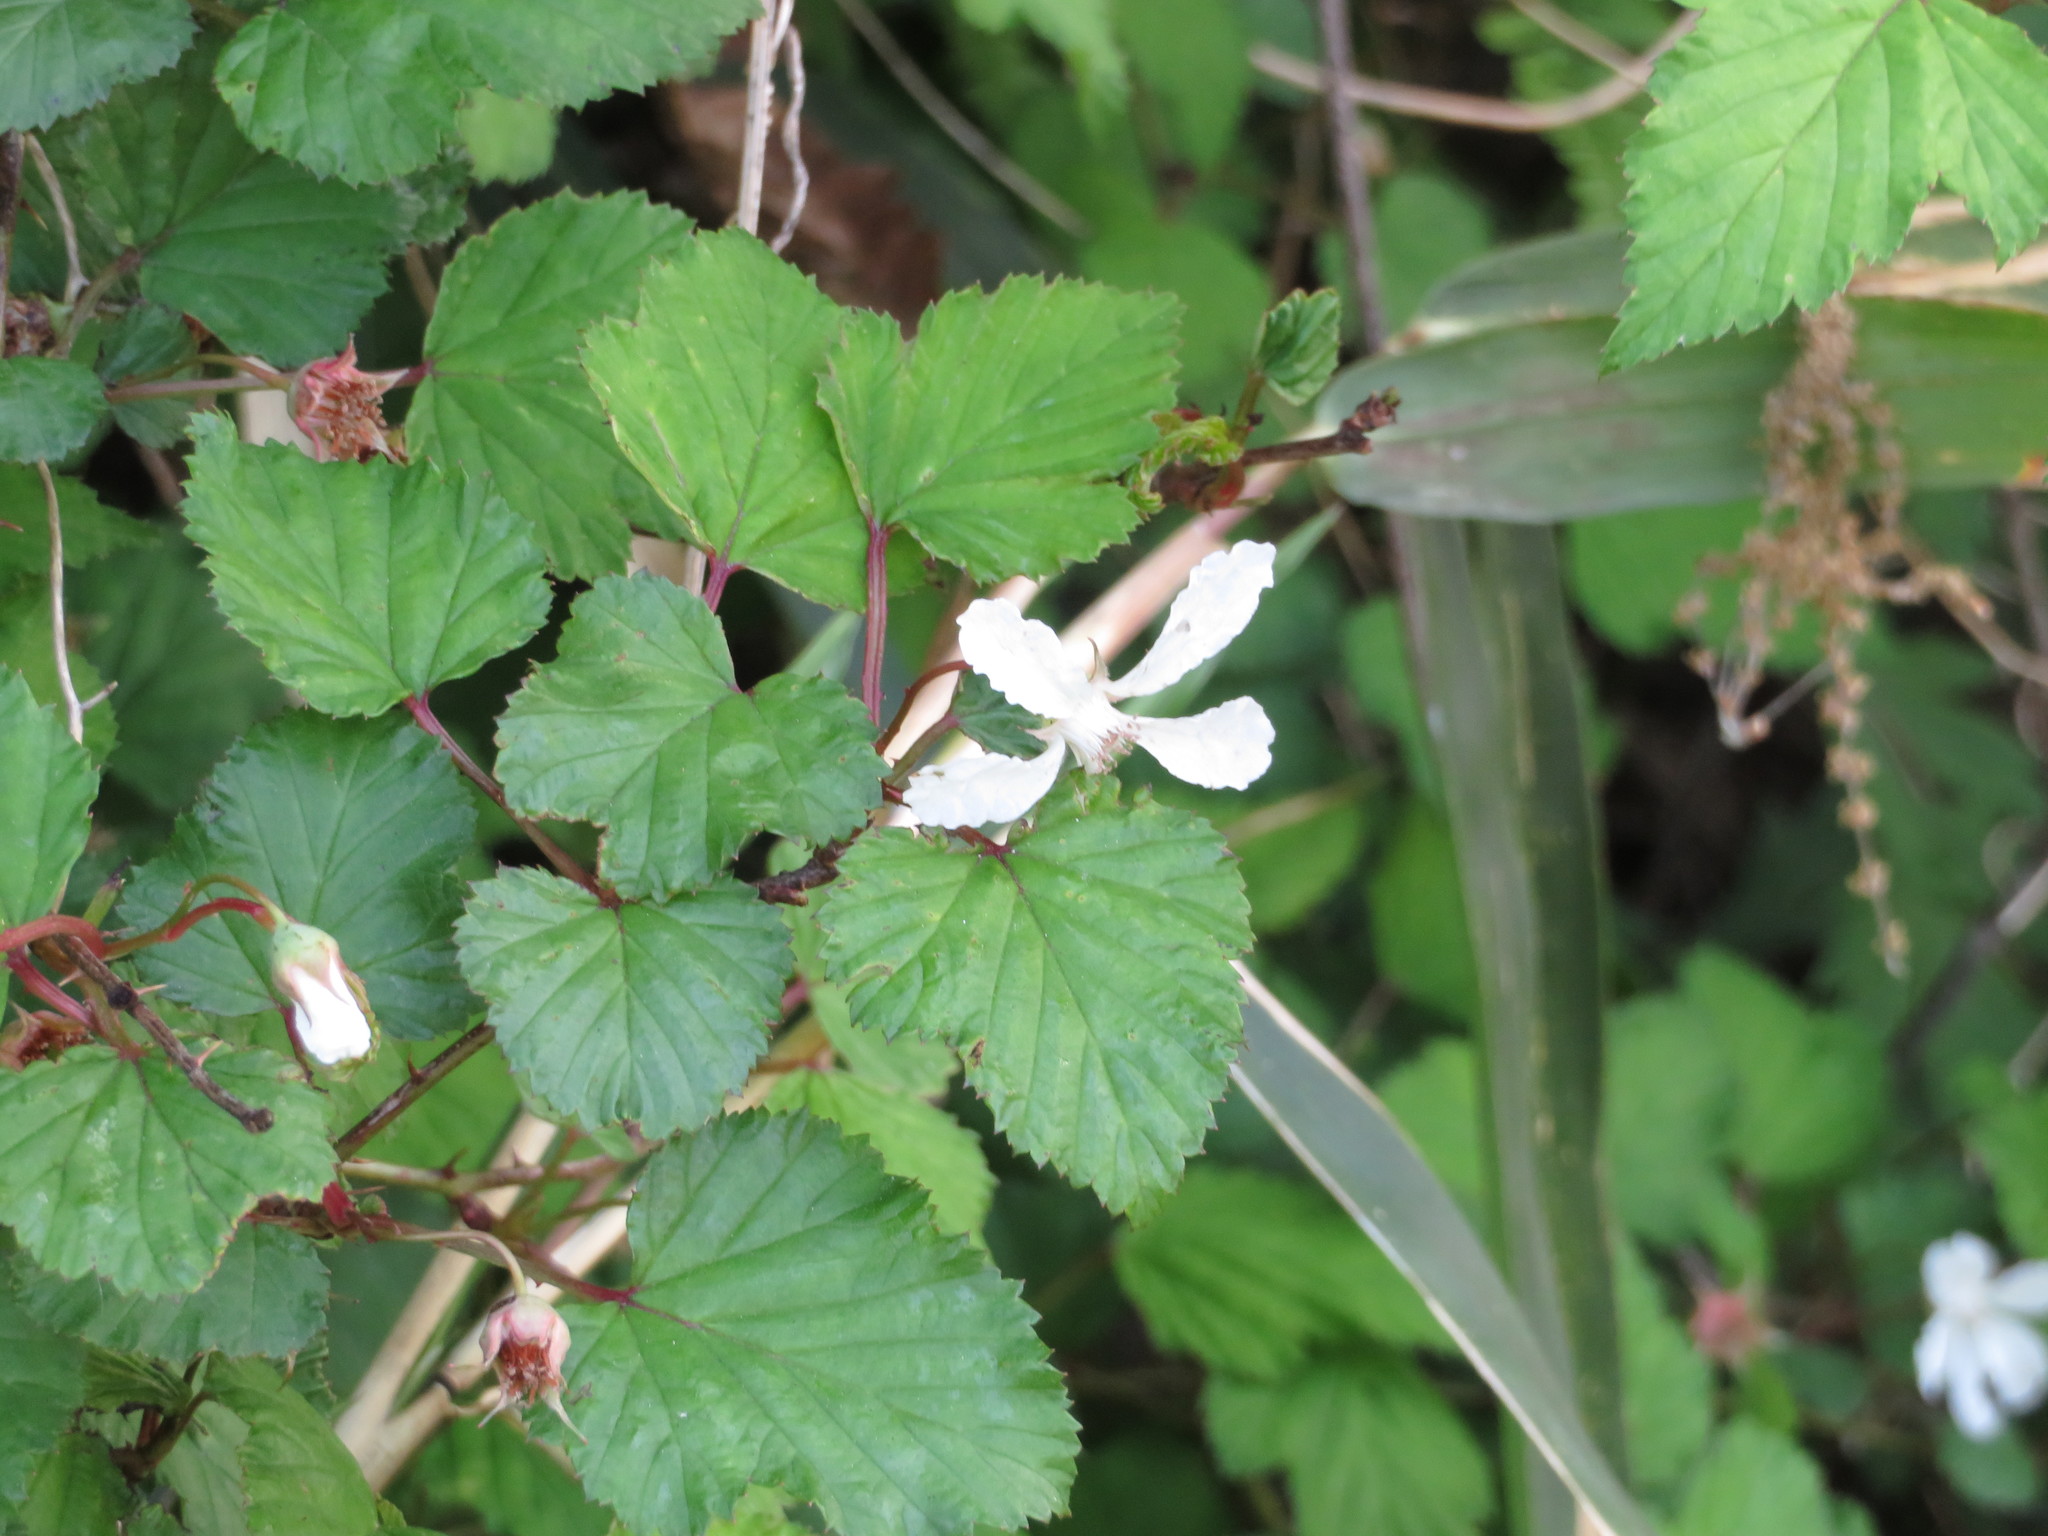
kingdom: Plantae
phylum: Tracheophyta
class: Magnoliopsida
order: Rosales
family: Rosaceae
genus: Rubus
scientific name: Rubus microphyllus
